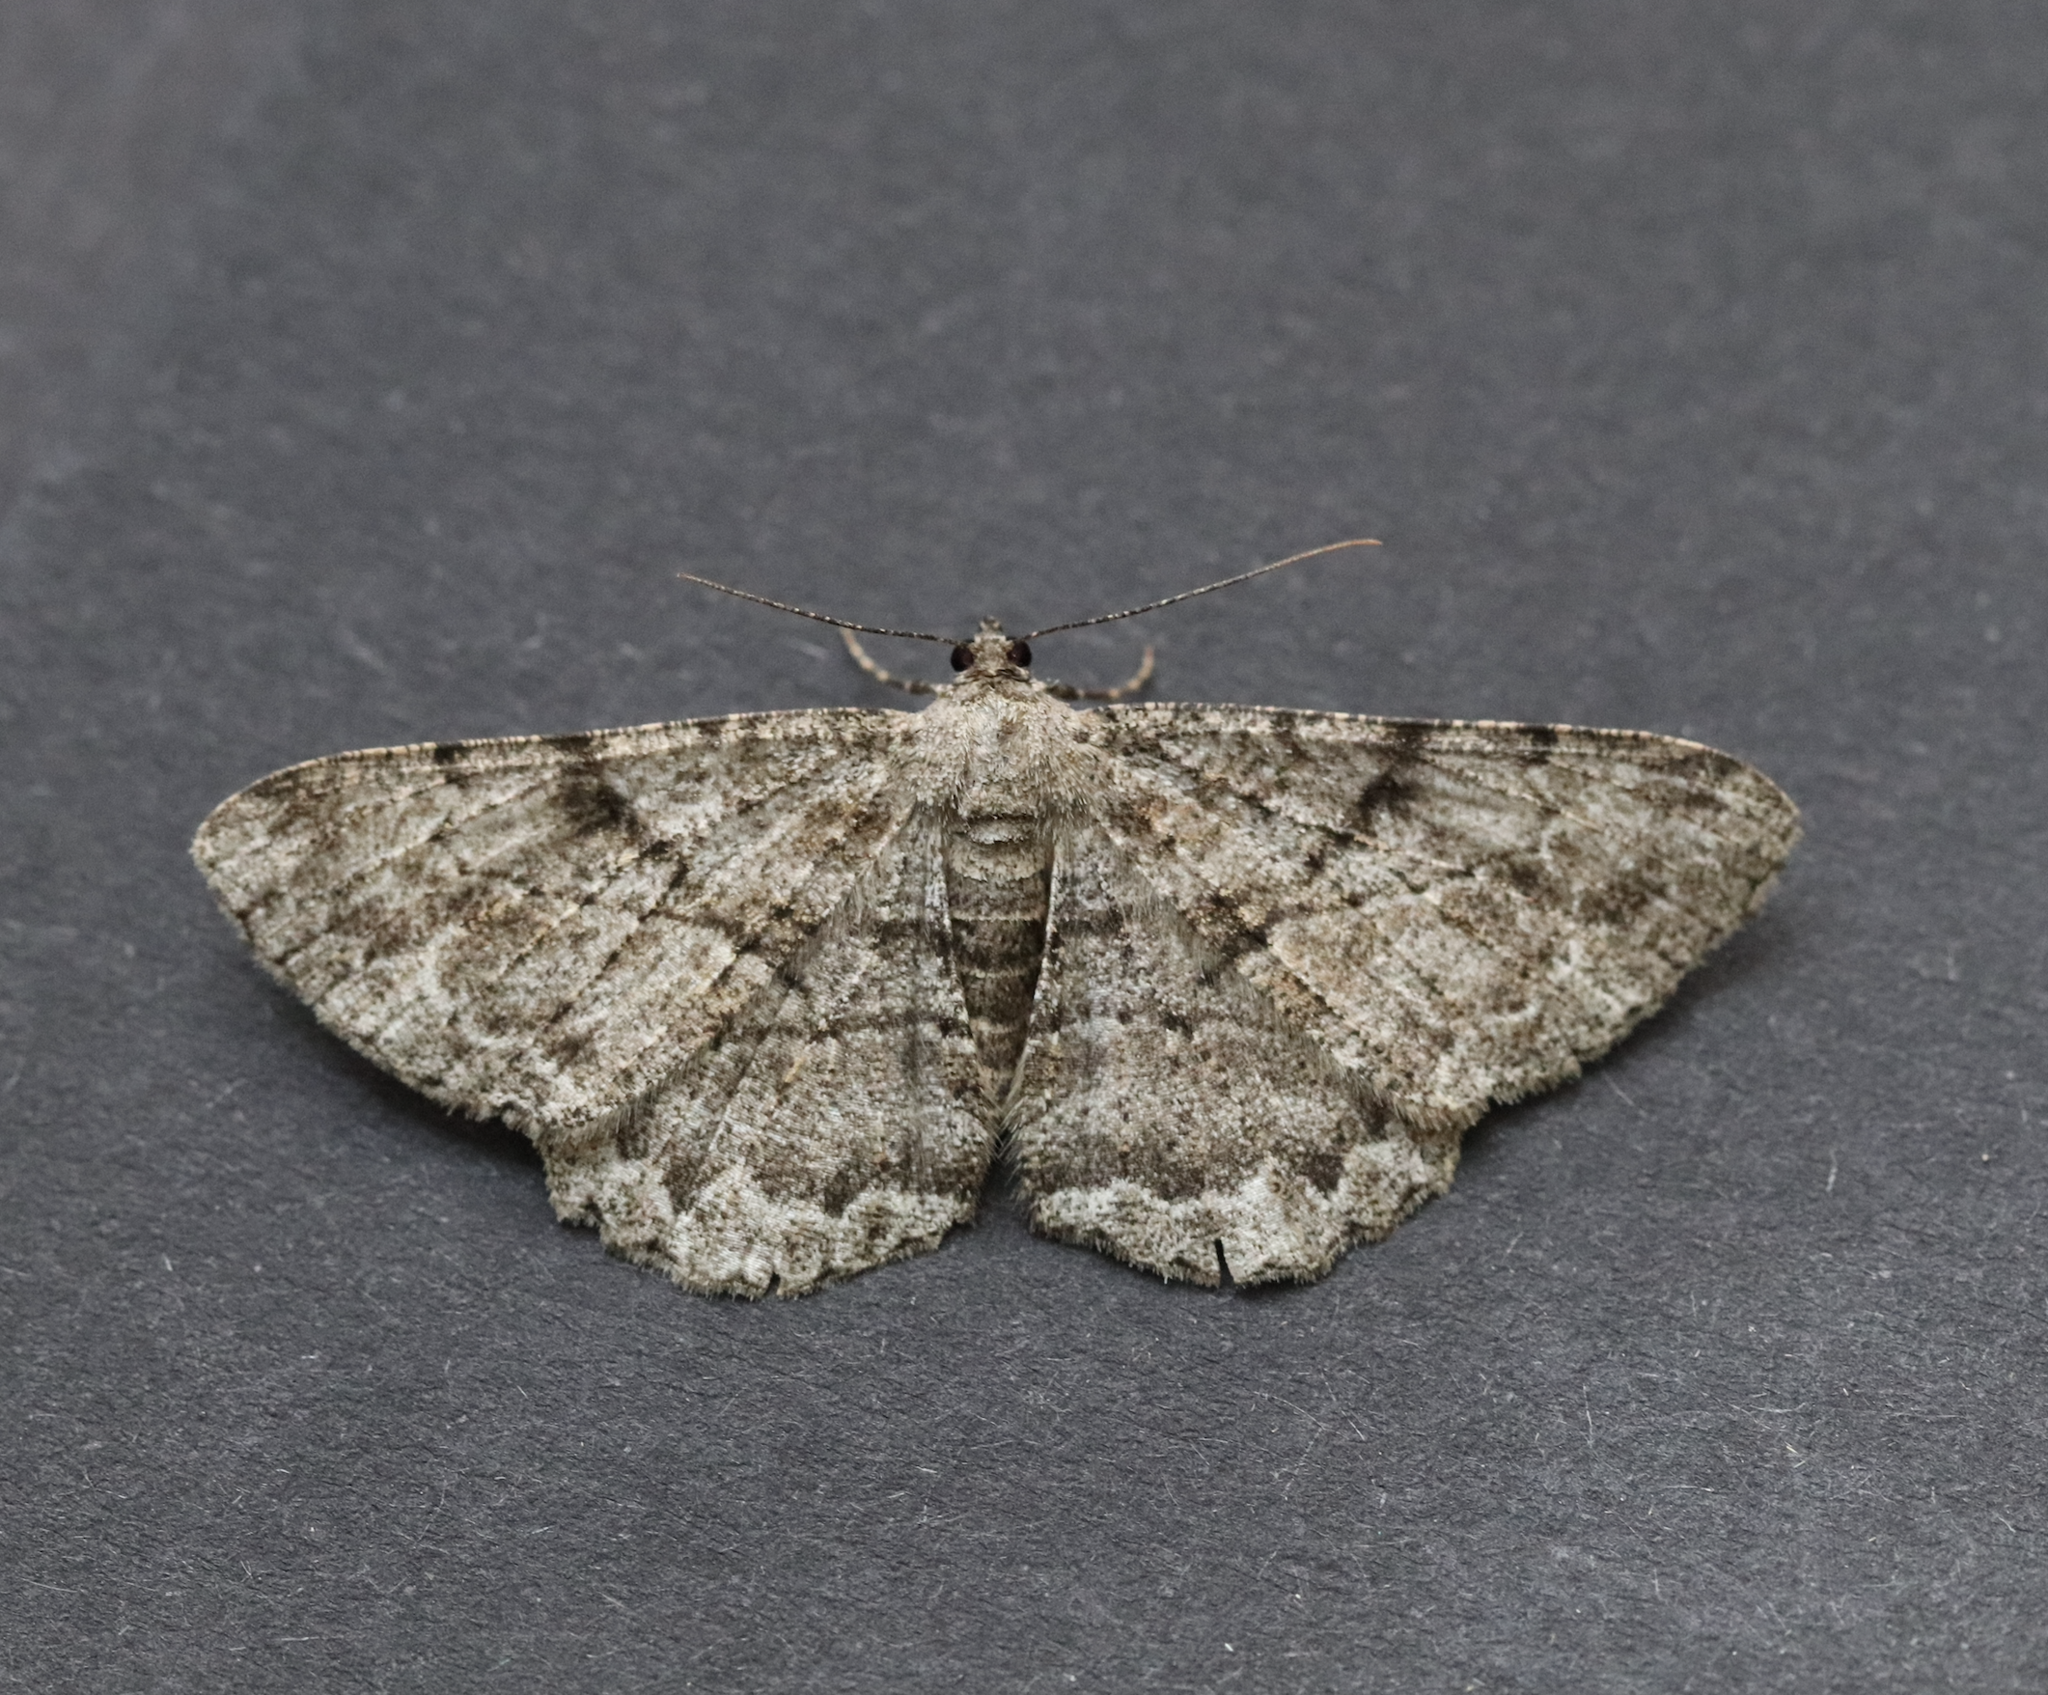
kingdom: Animalia
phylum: Arthropoda
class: Insecta
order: Lepidoptera
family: Geometridae
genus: Peribatodes
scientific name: Peribatodes rhomboidaria
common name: Willow beauty
